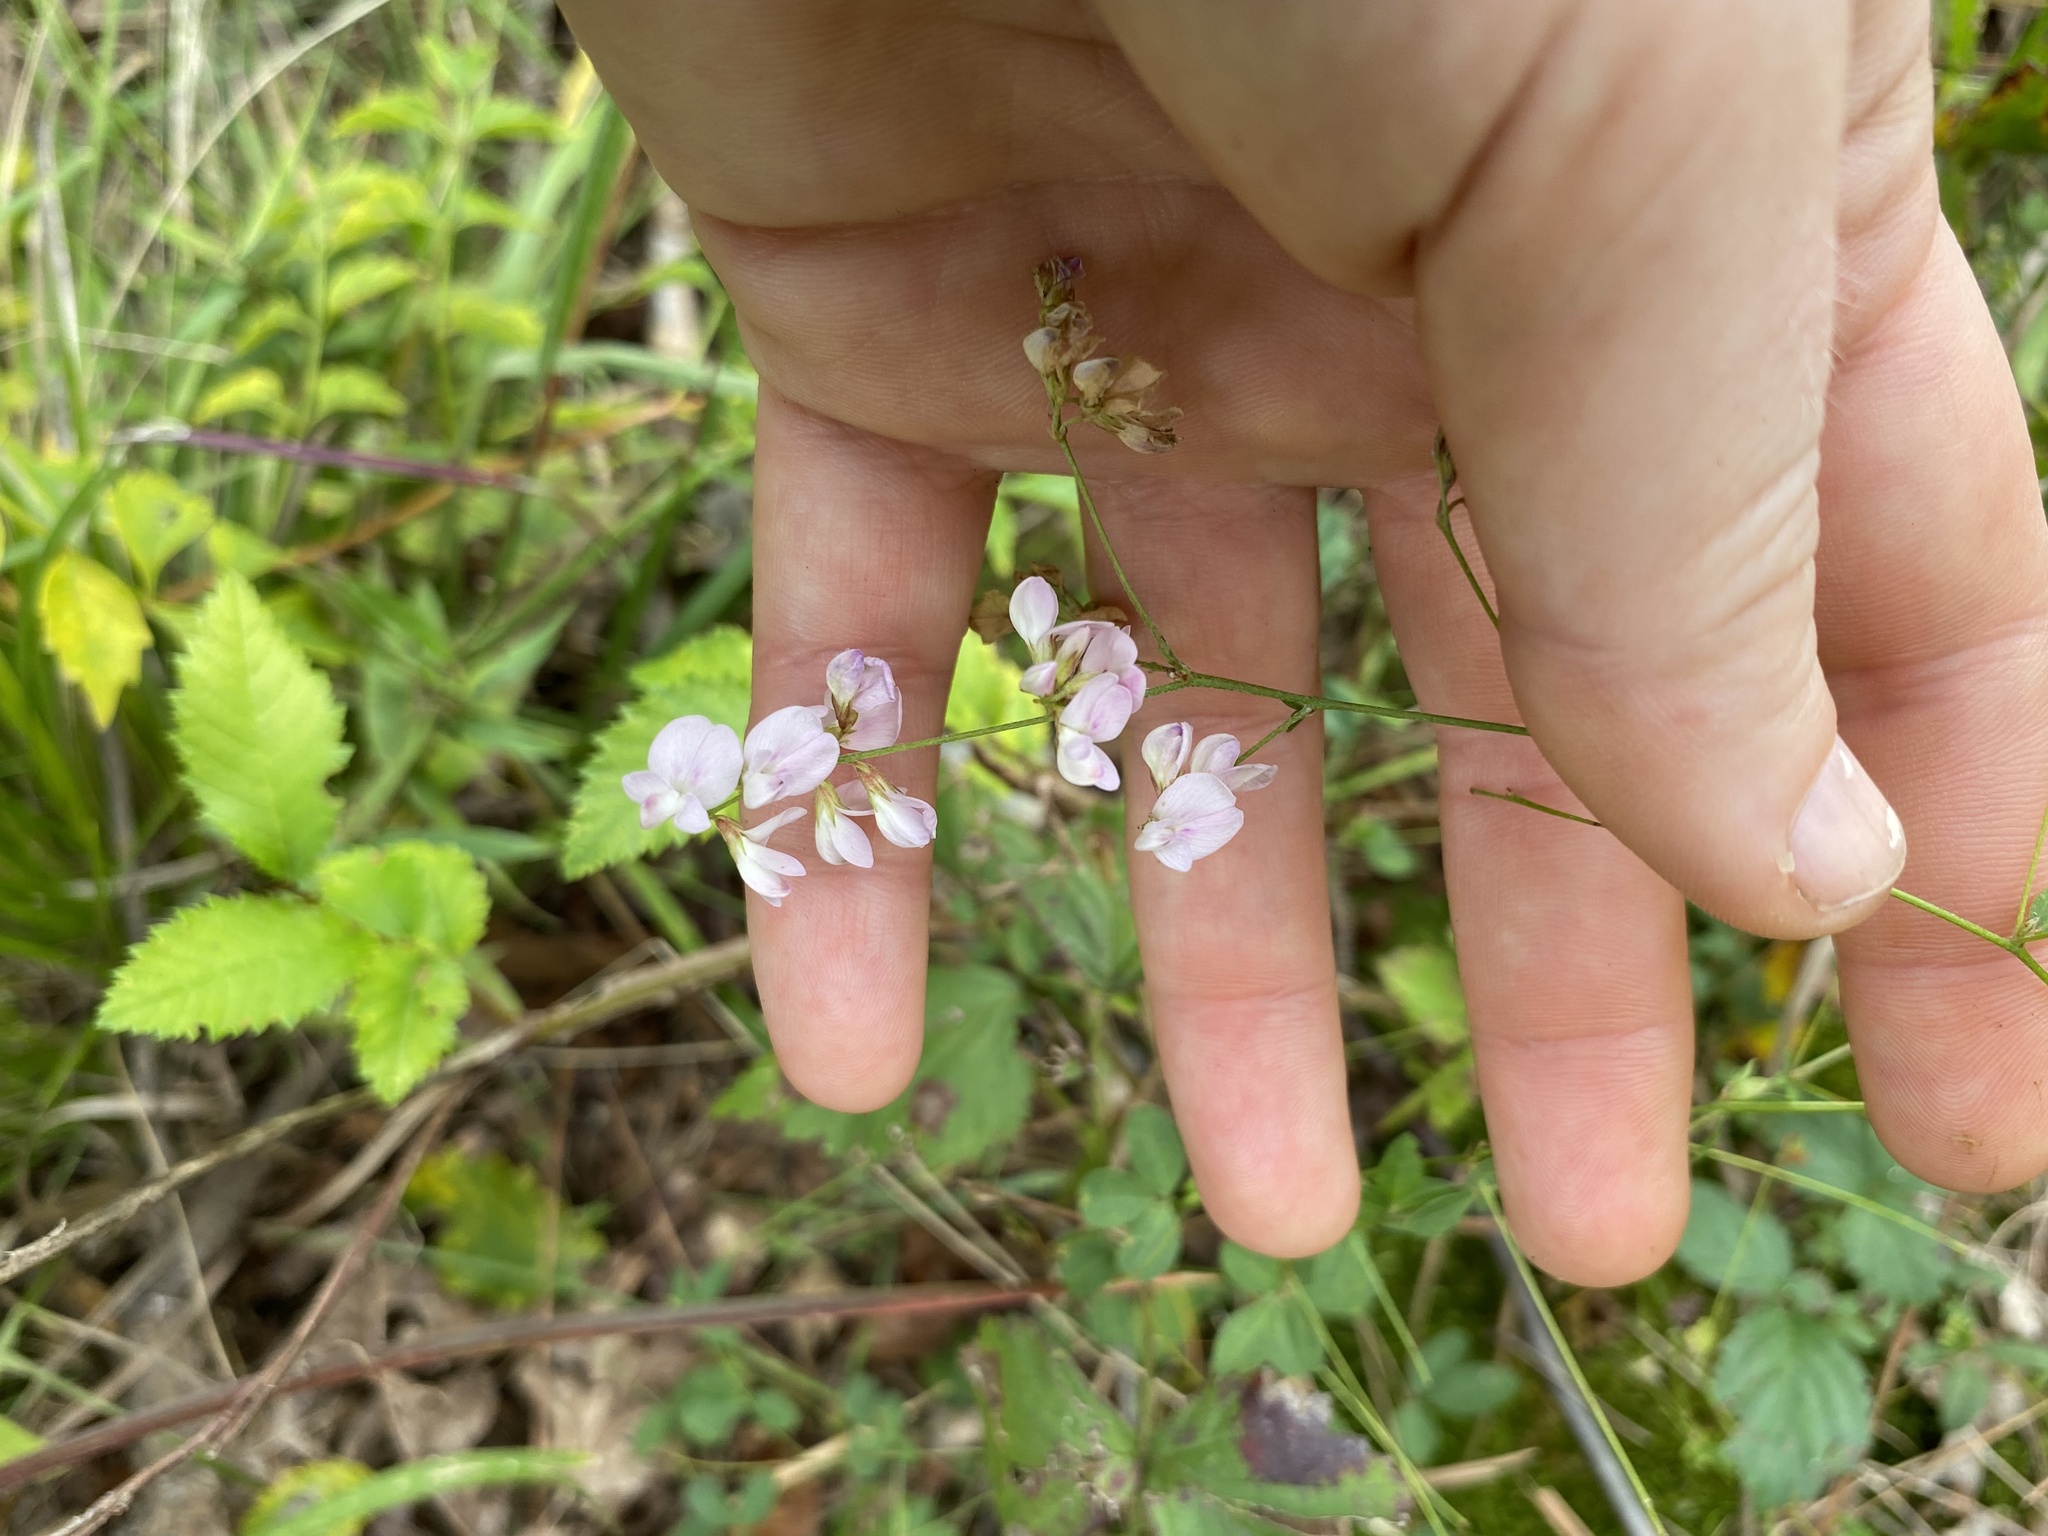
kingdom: Plantae
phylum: Tracheophyta
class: Magnoliopsida
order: Fabales
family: Fabaceae
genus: Lespedeza
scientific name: Lespedeza repens
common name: Creeping bush-clover
